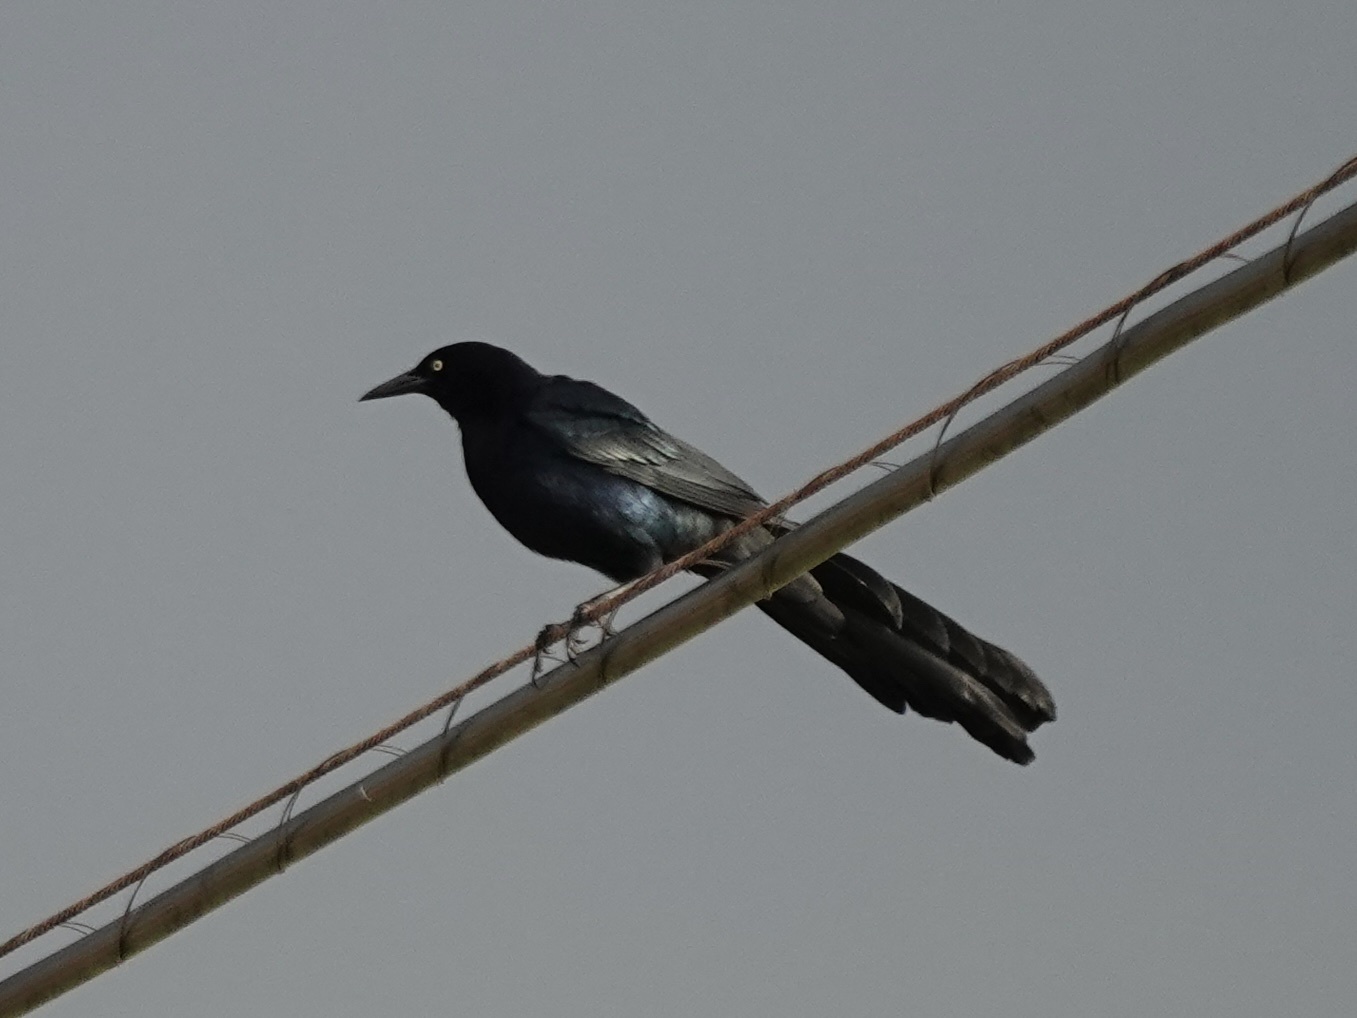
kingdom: Animalia
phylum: Chordata
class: Aves
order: Passeriformes
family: Icteridae
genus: Quiscalus
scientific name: Quiscalus mexicanus
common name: Great-tailed grackle
